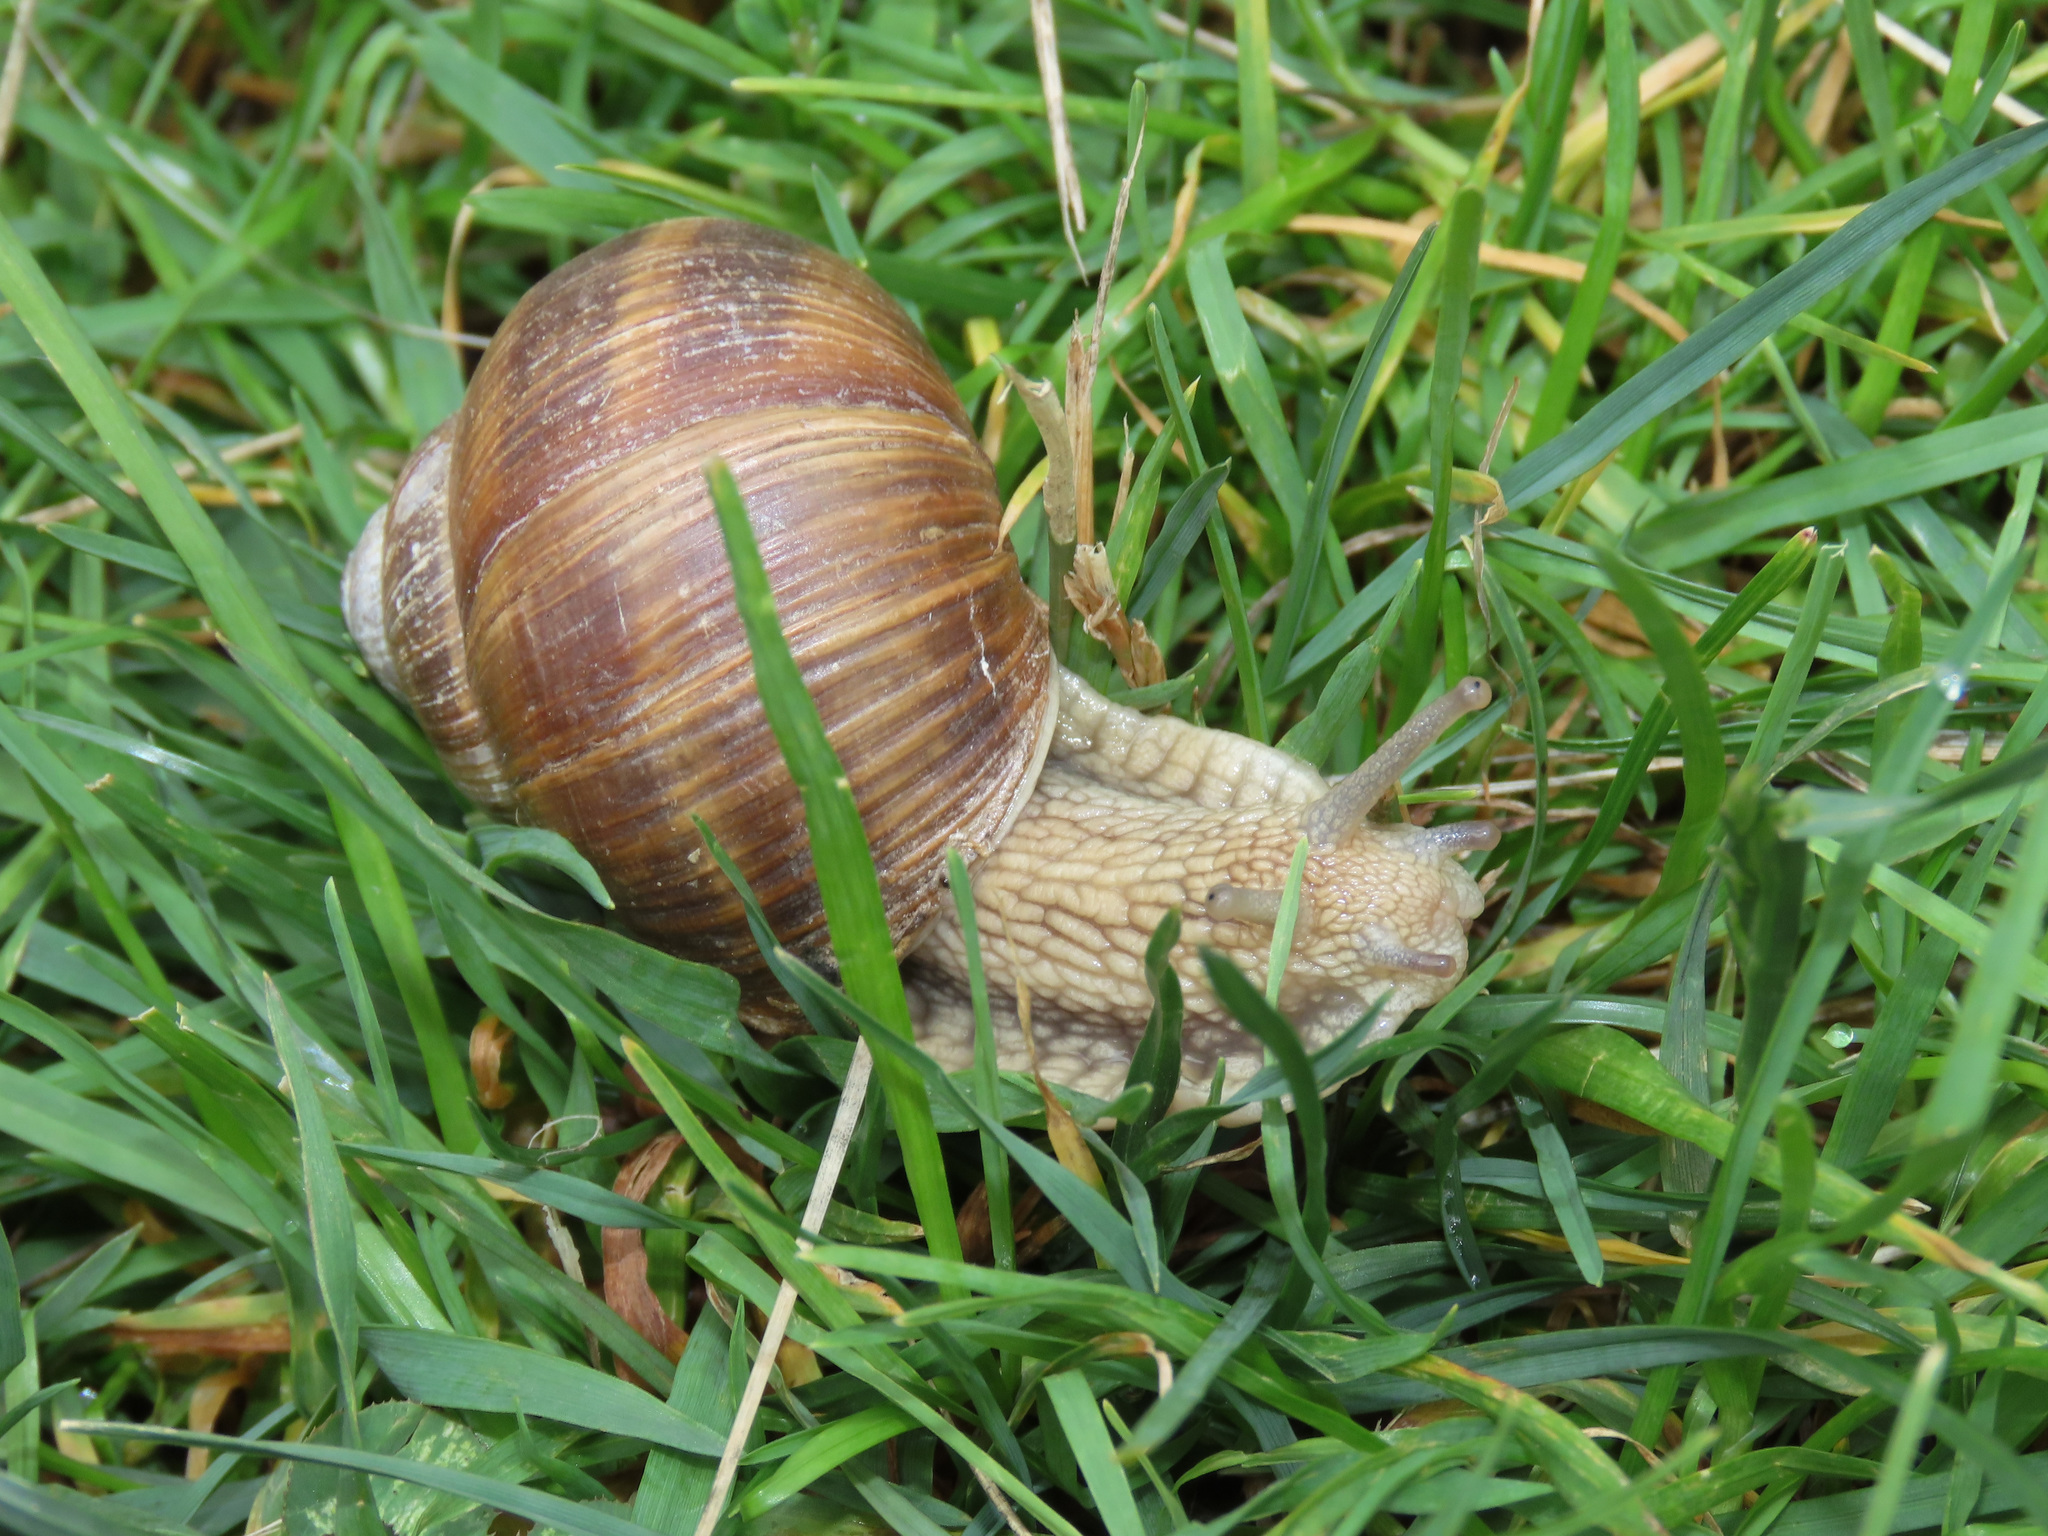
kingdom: Animalia
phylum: Mollusca
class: Gastropoda
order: Stylommatophora
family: Helicidae
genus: Helix
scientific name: Helix pomatia
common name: Roman snail
